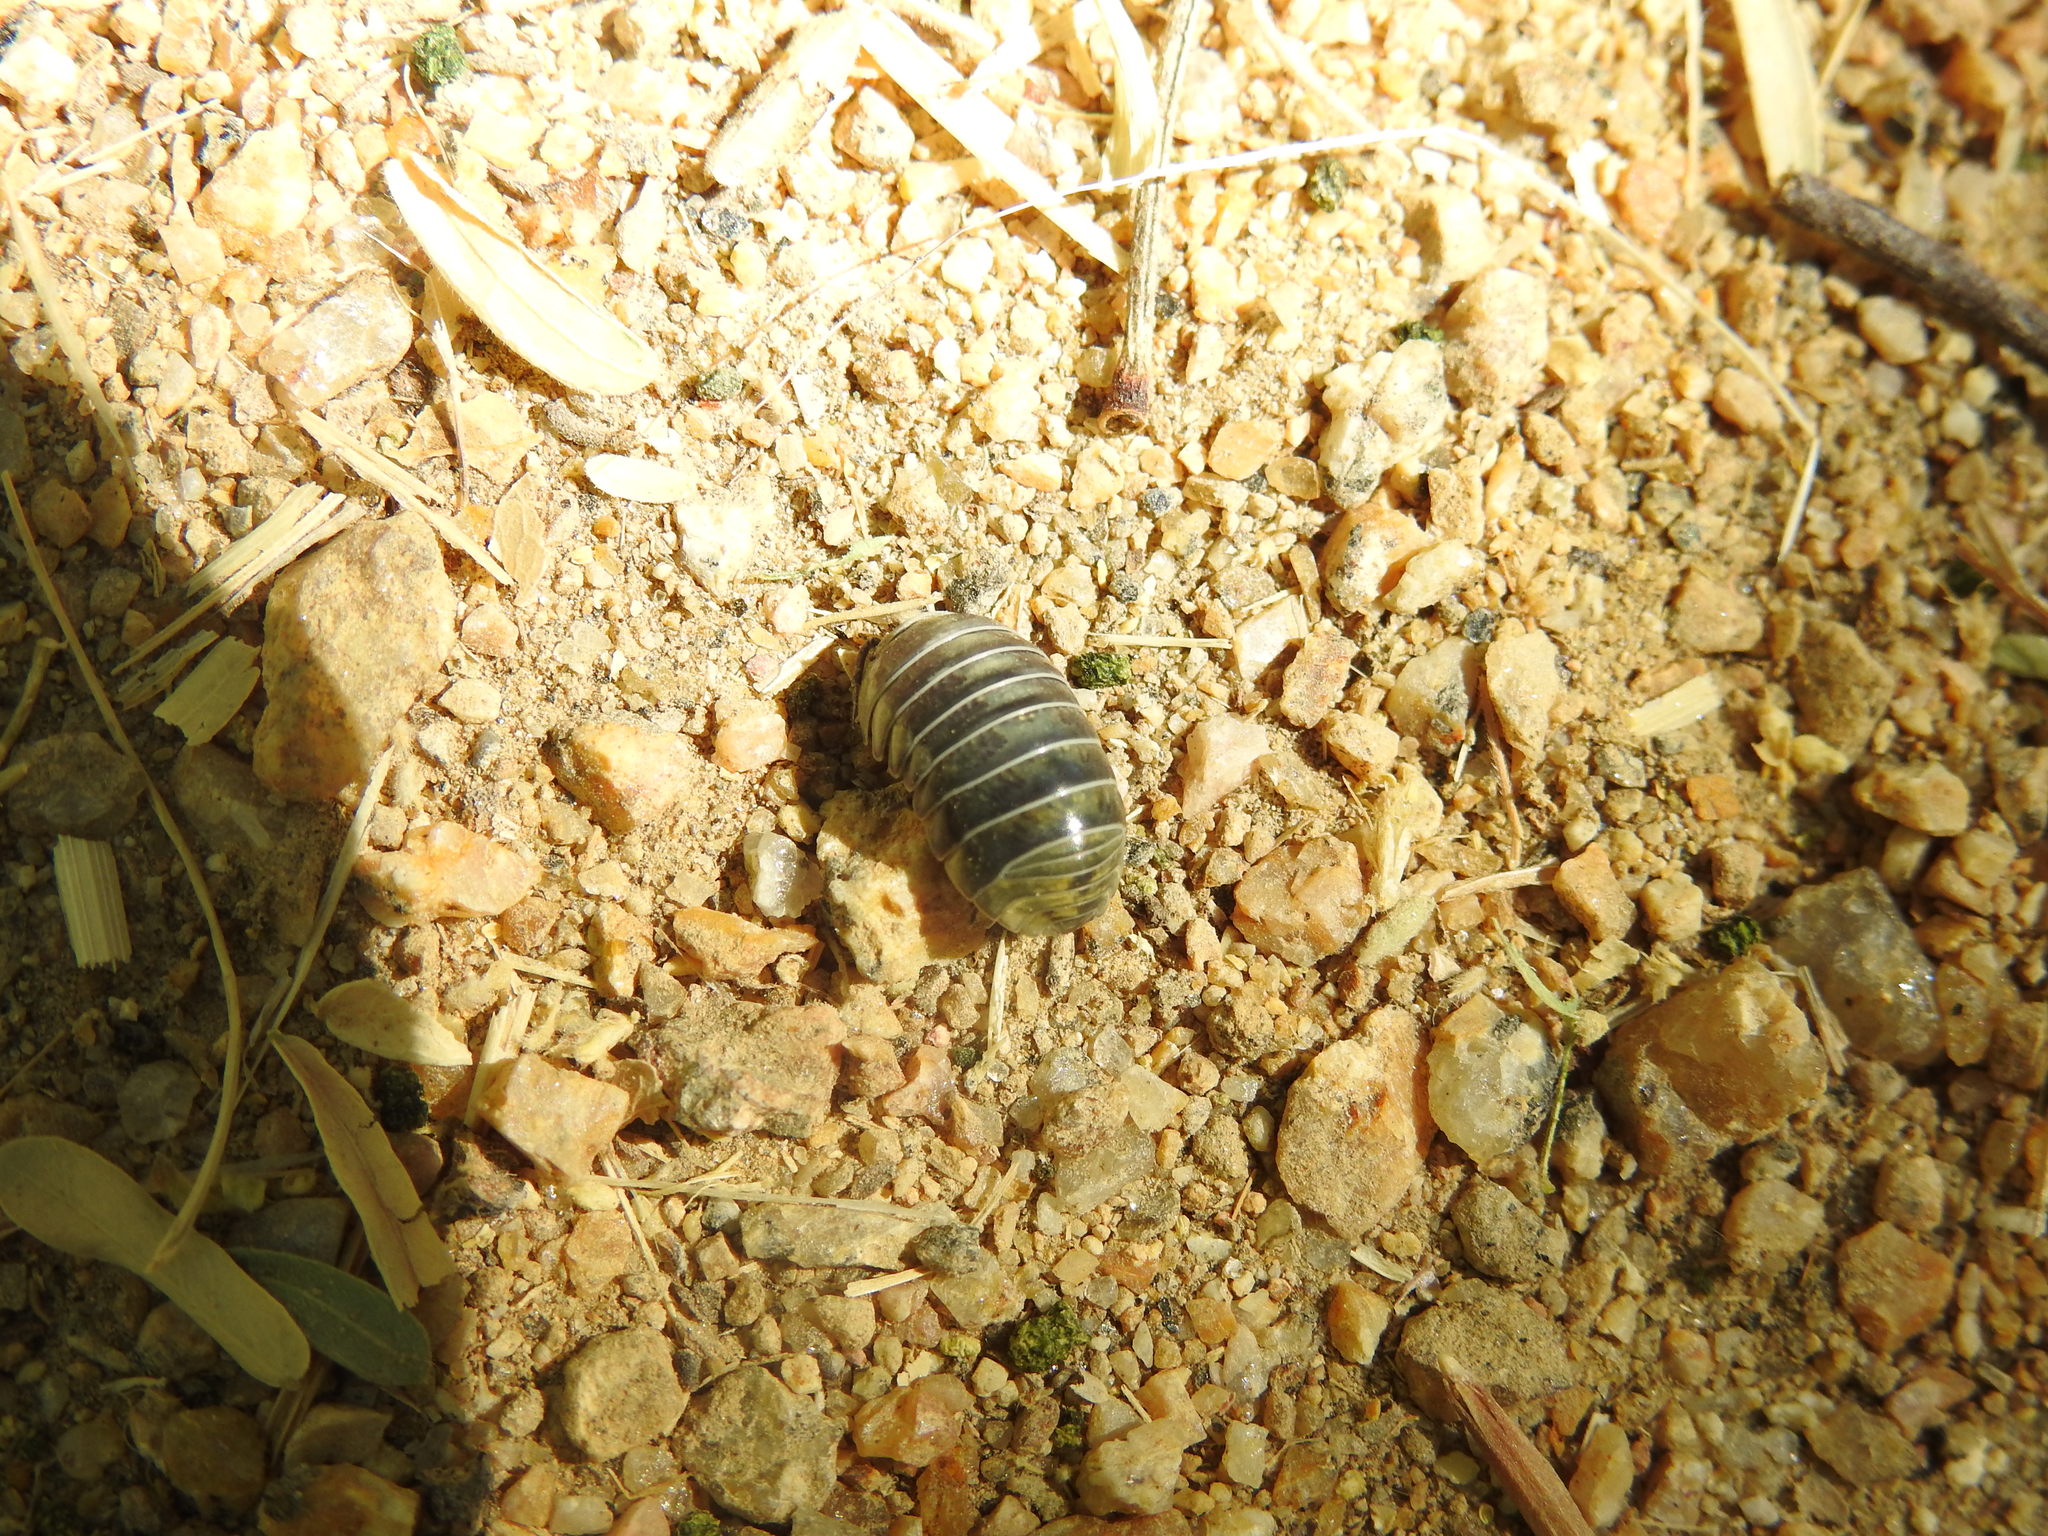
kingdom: Animalia
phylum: Arthropoda
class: Malacostraca
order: Isopoda
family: Armadillidiidae
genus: Armadillidium
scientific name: Armadillidium vulgare
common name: Common pill woodlouse
